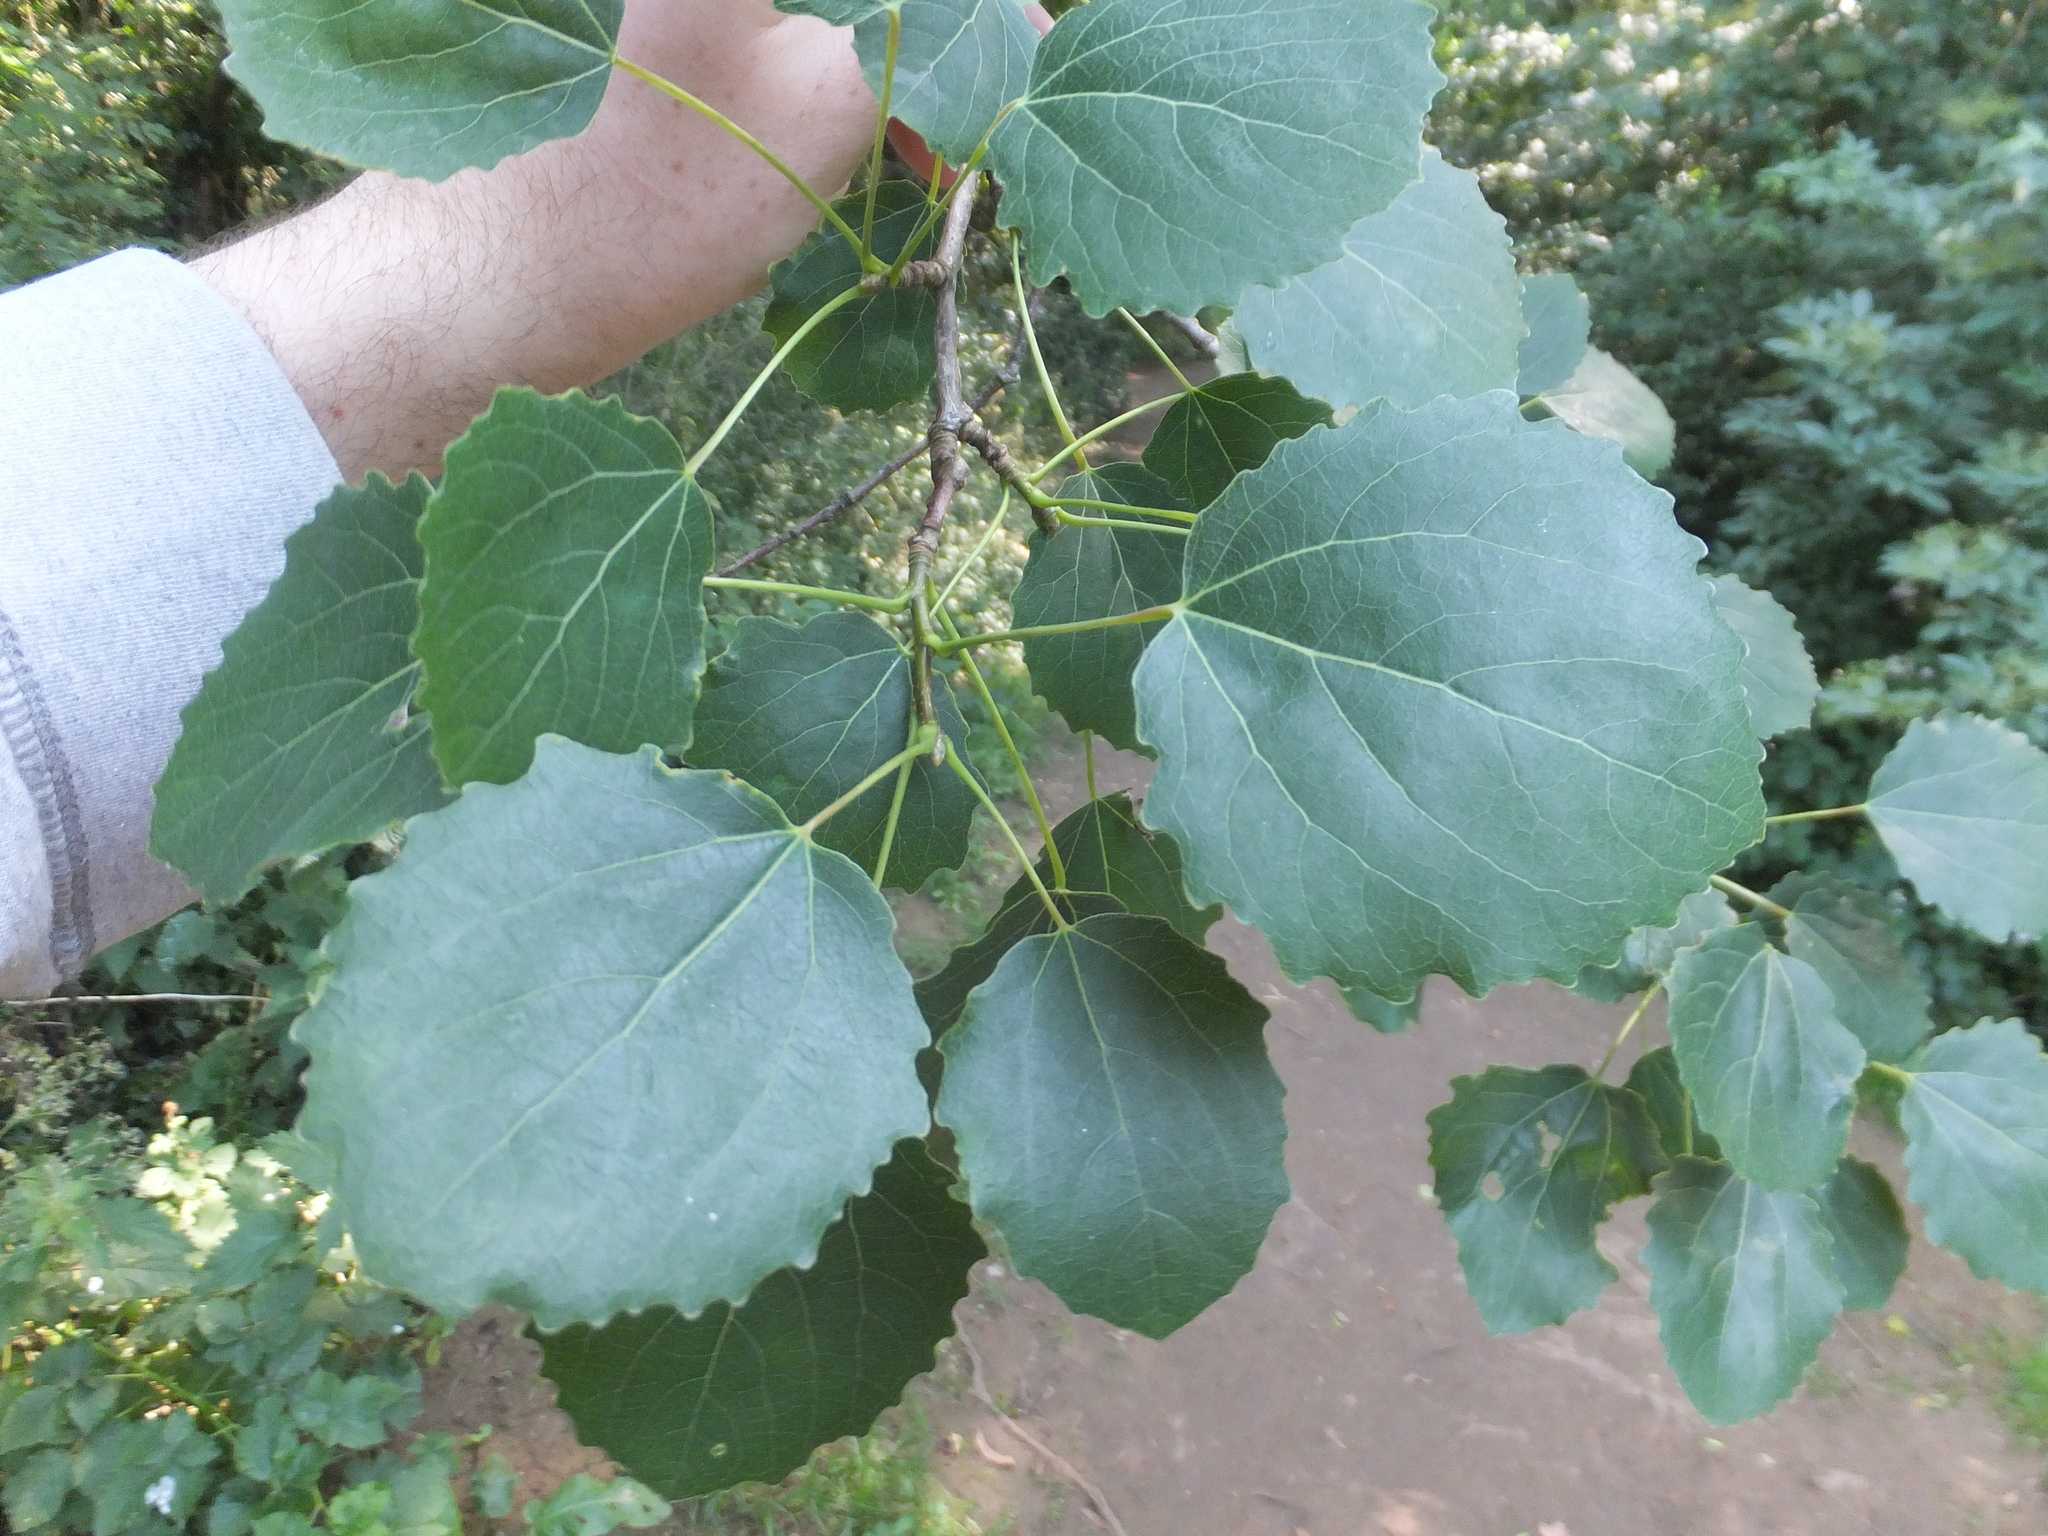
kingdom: Plantae
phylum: Tracheophyta
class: Magnoliopsida
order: Malpighiales
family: Salicaceae
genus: Populus
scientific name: Populus tremula
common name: European aspen
